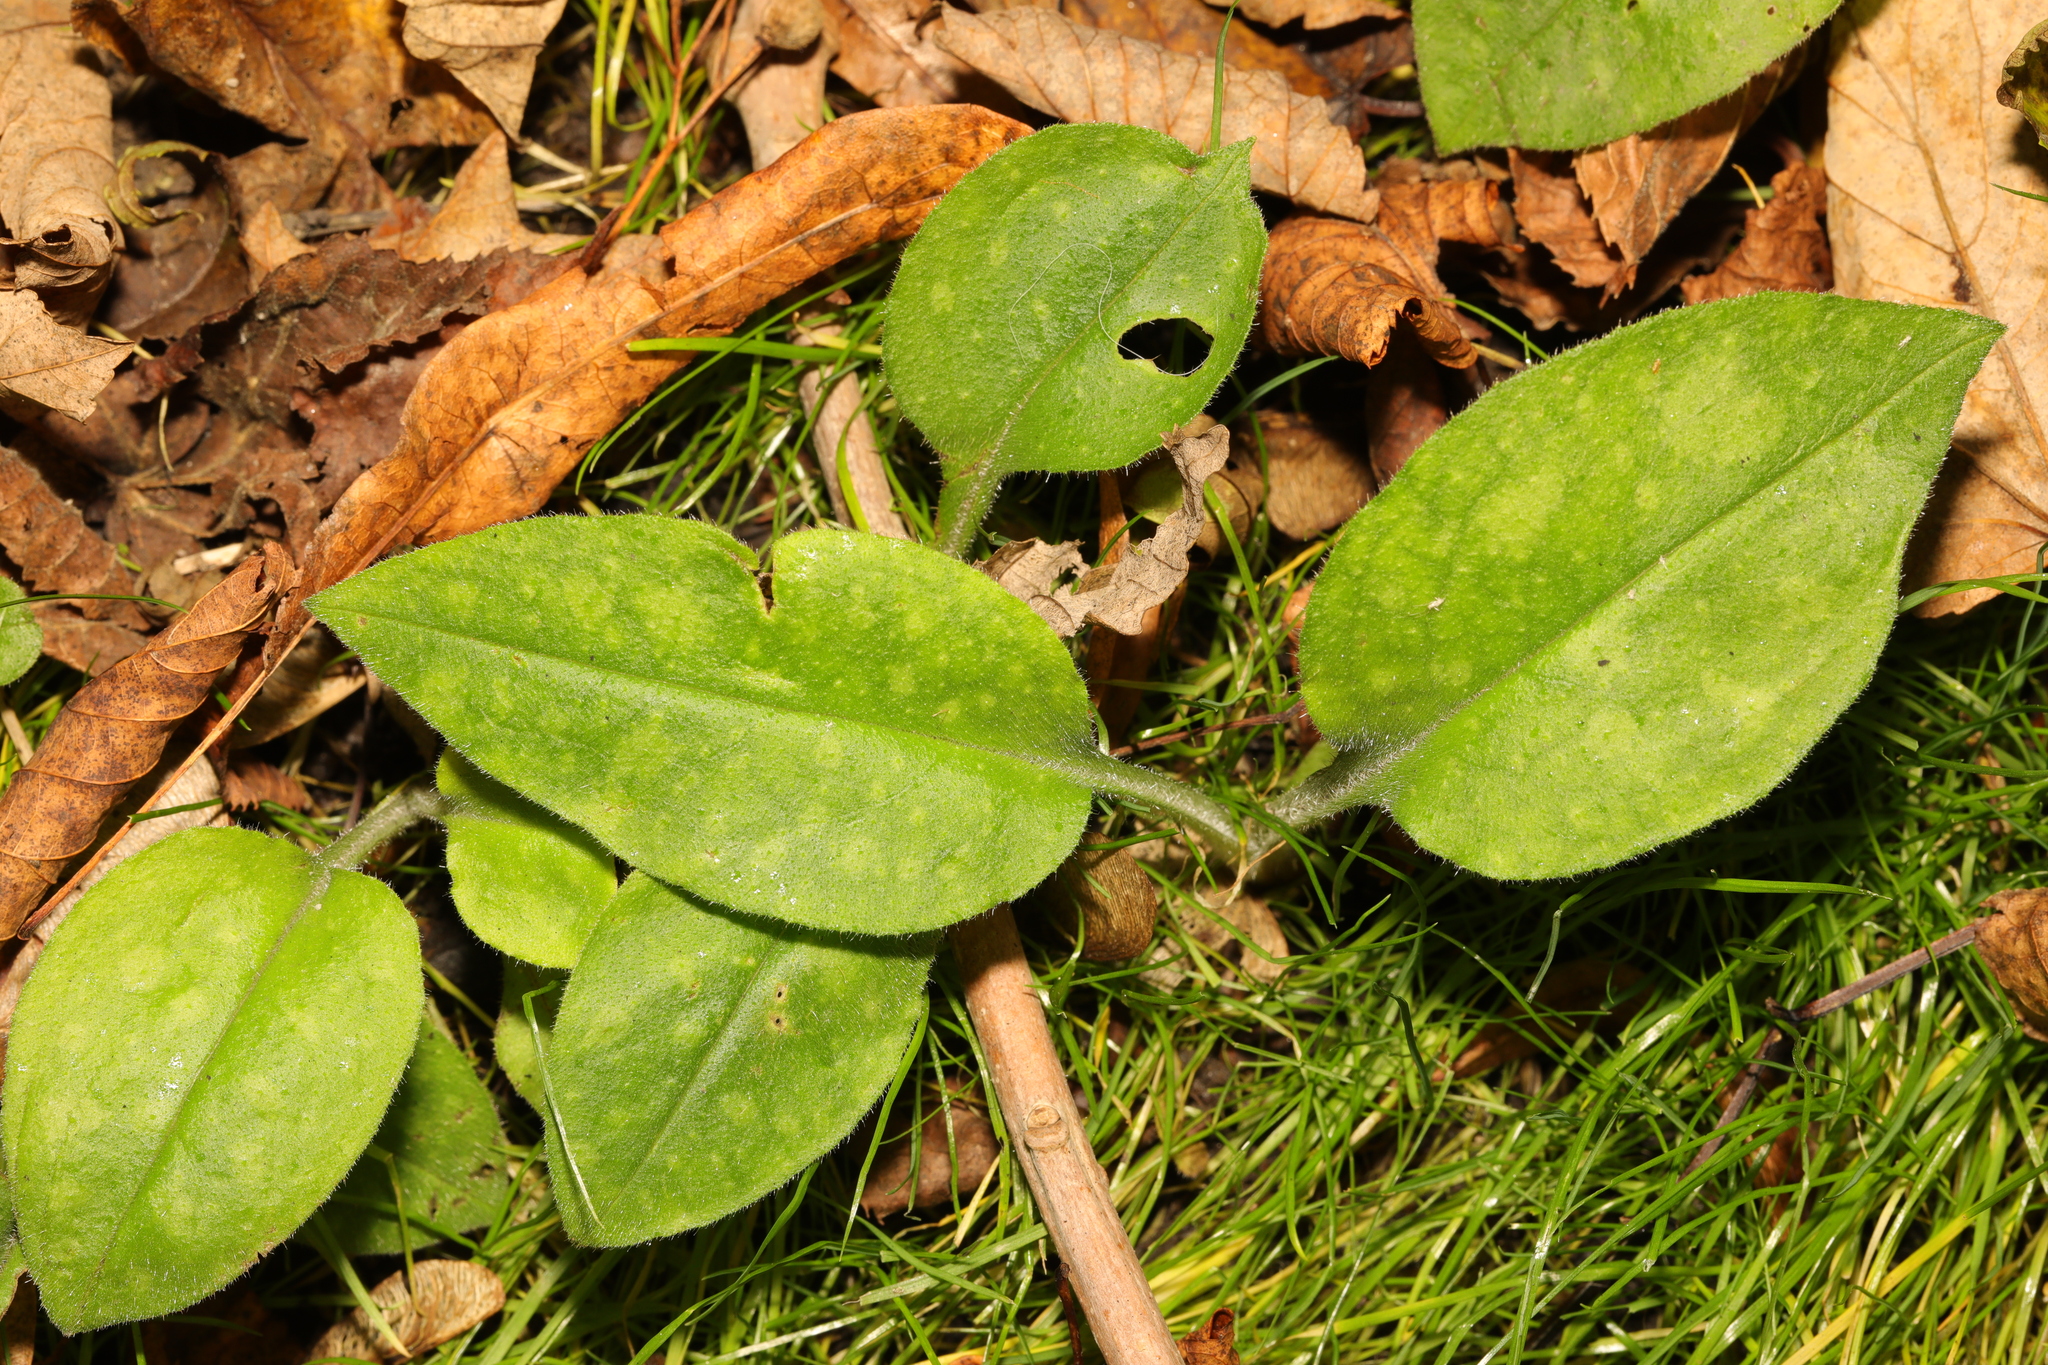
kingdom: Plantae
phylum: Tracheophyta
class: Magnoliopsida
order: Boraginales
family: Boraginaceae
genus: Pulmonaria
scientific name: Pulmonaria officinalis
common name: Lungwort
